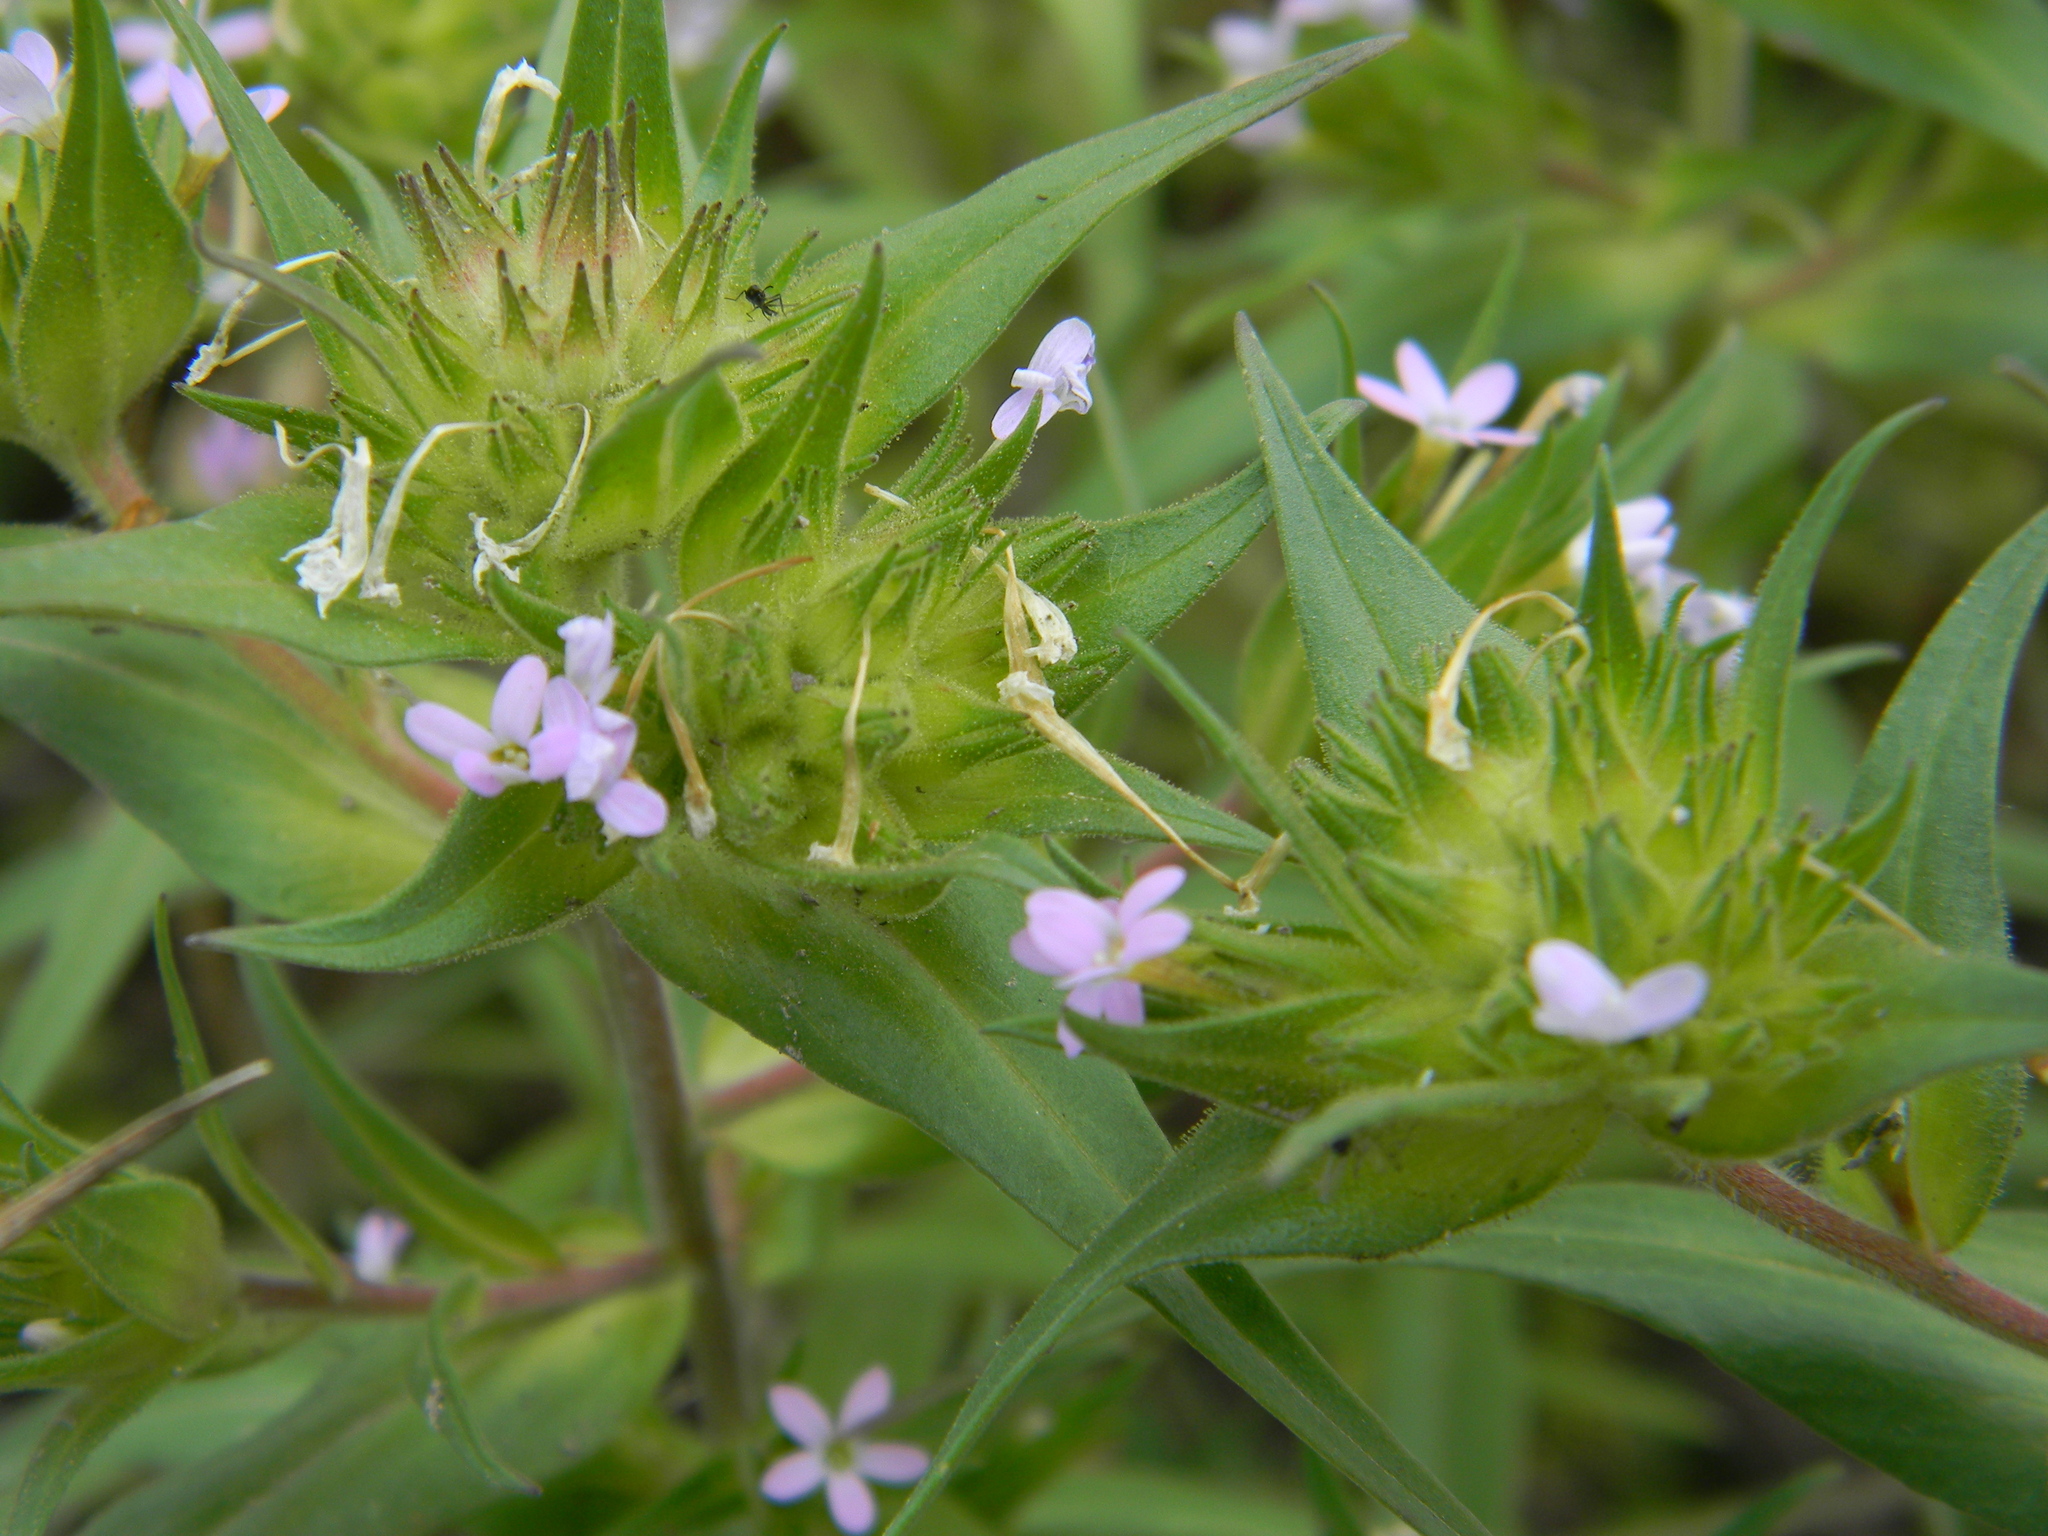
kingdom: Plantae
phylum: Tracheophyta
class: Magnoliopsida
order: Ericales
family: Polemoniaceae
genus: Collomia
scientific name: Collomia linearis
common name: Tiny trumpet
